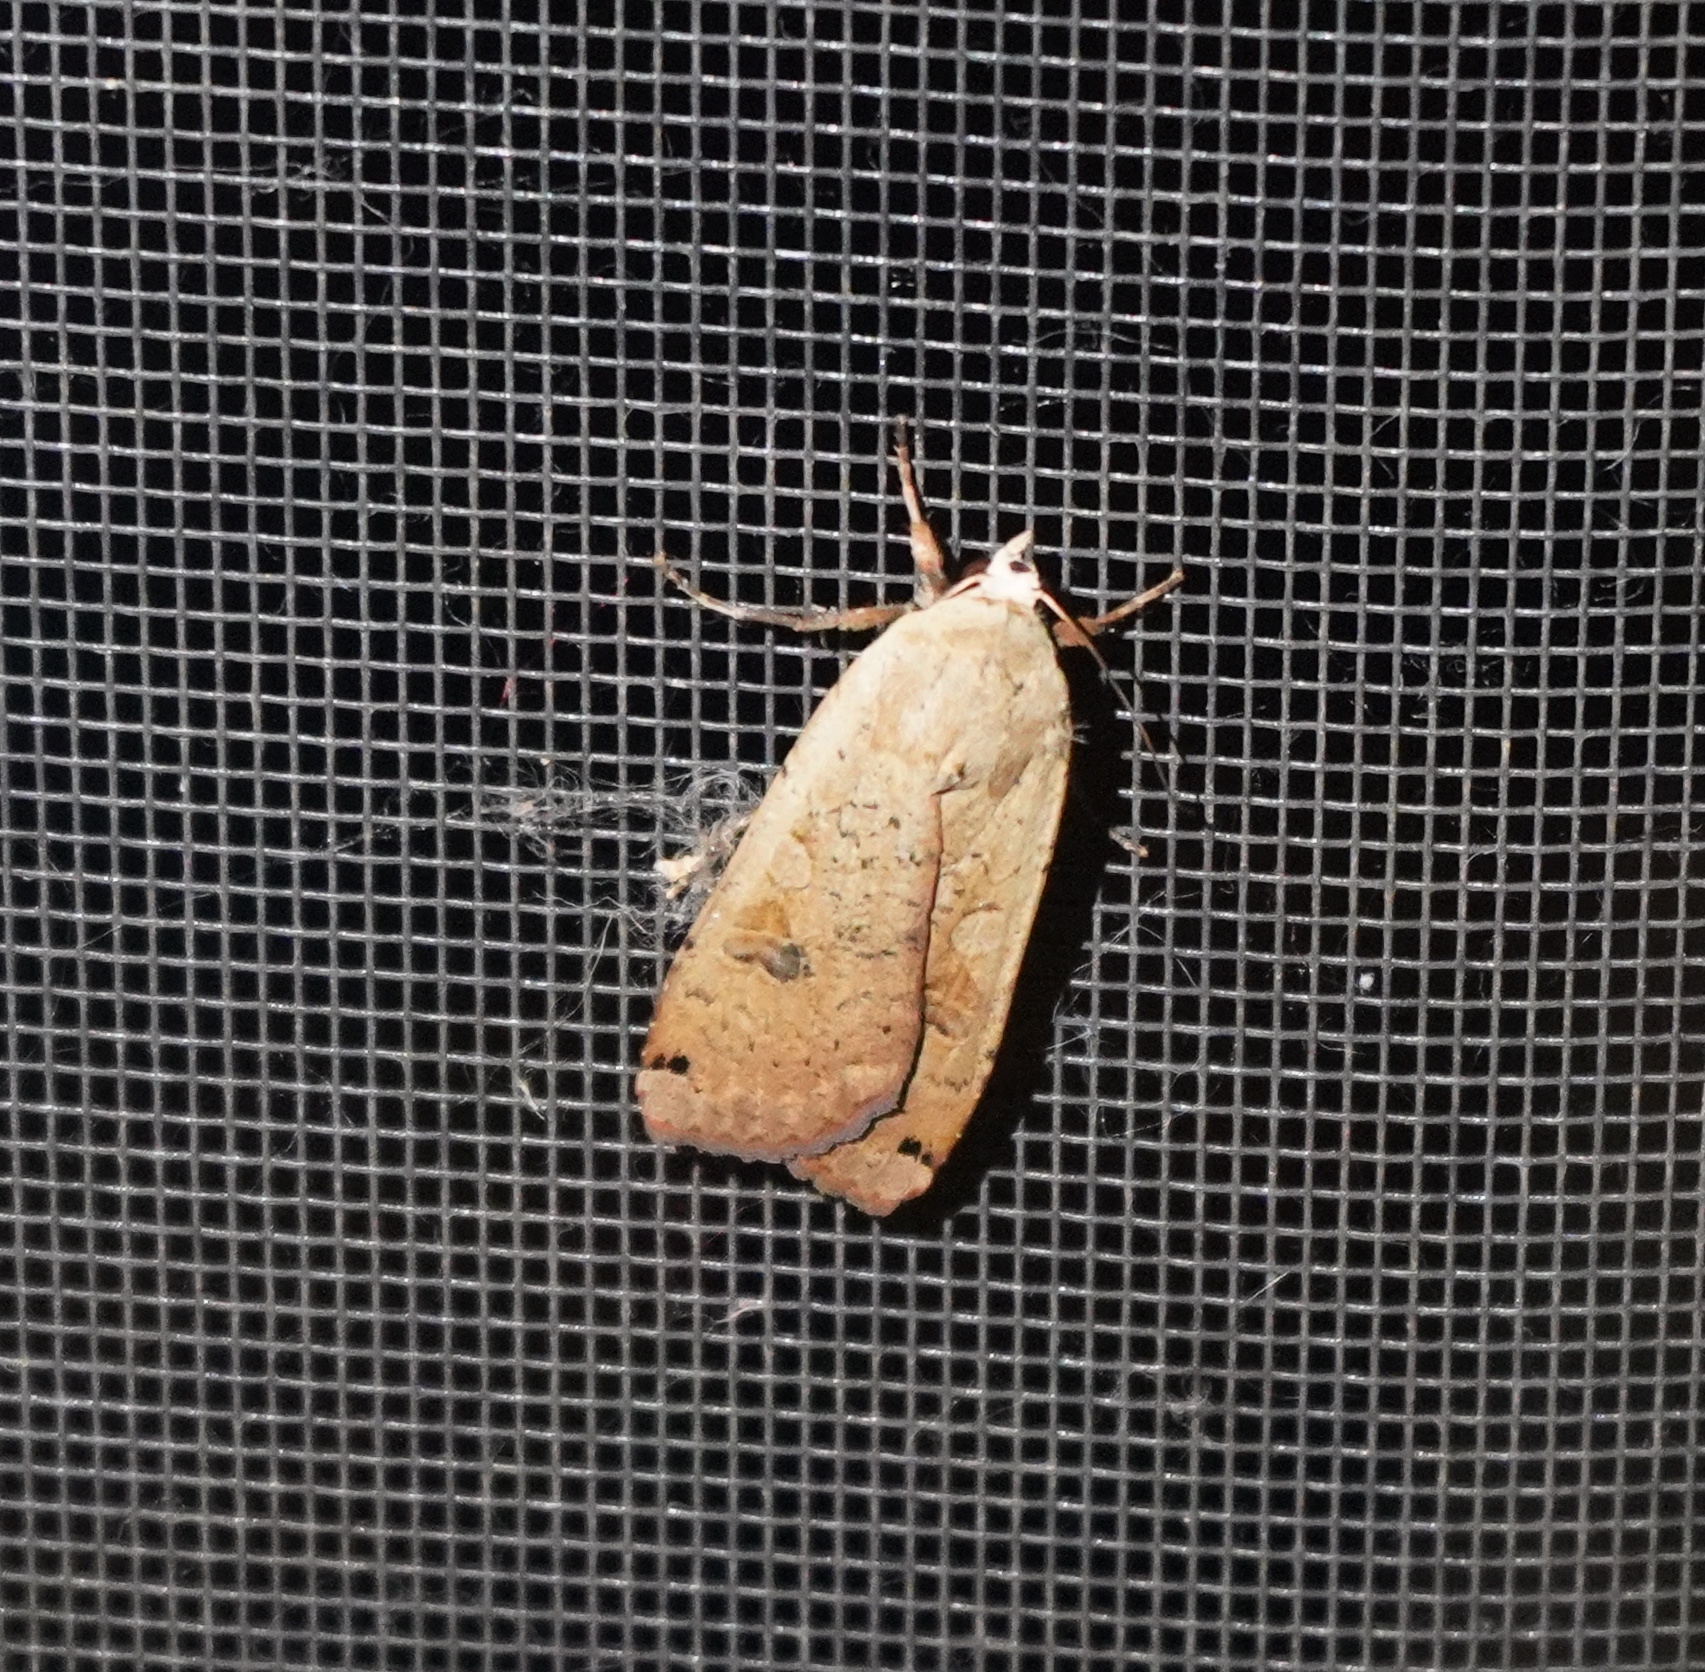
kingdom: Animalia
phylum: Arthropoda
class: Insecta
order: Lepidoptera
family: Noctuidae
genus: Noctua
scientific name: Noctua pronuba
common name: Large yellow underwing
